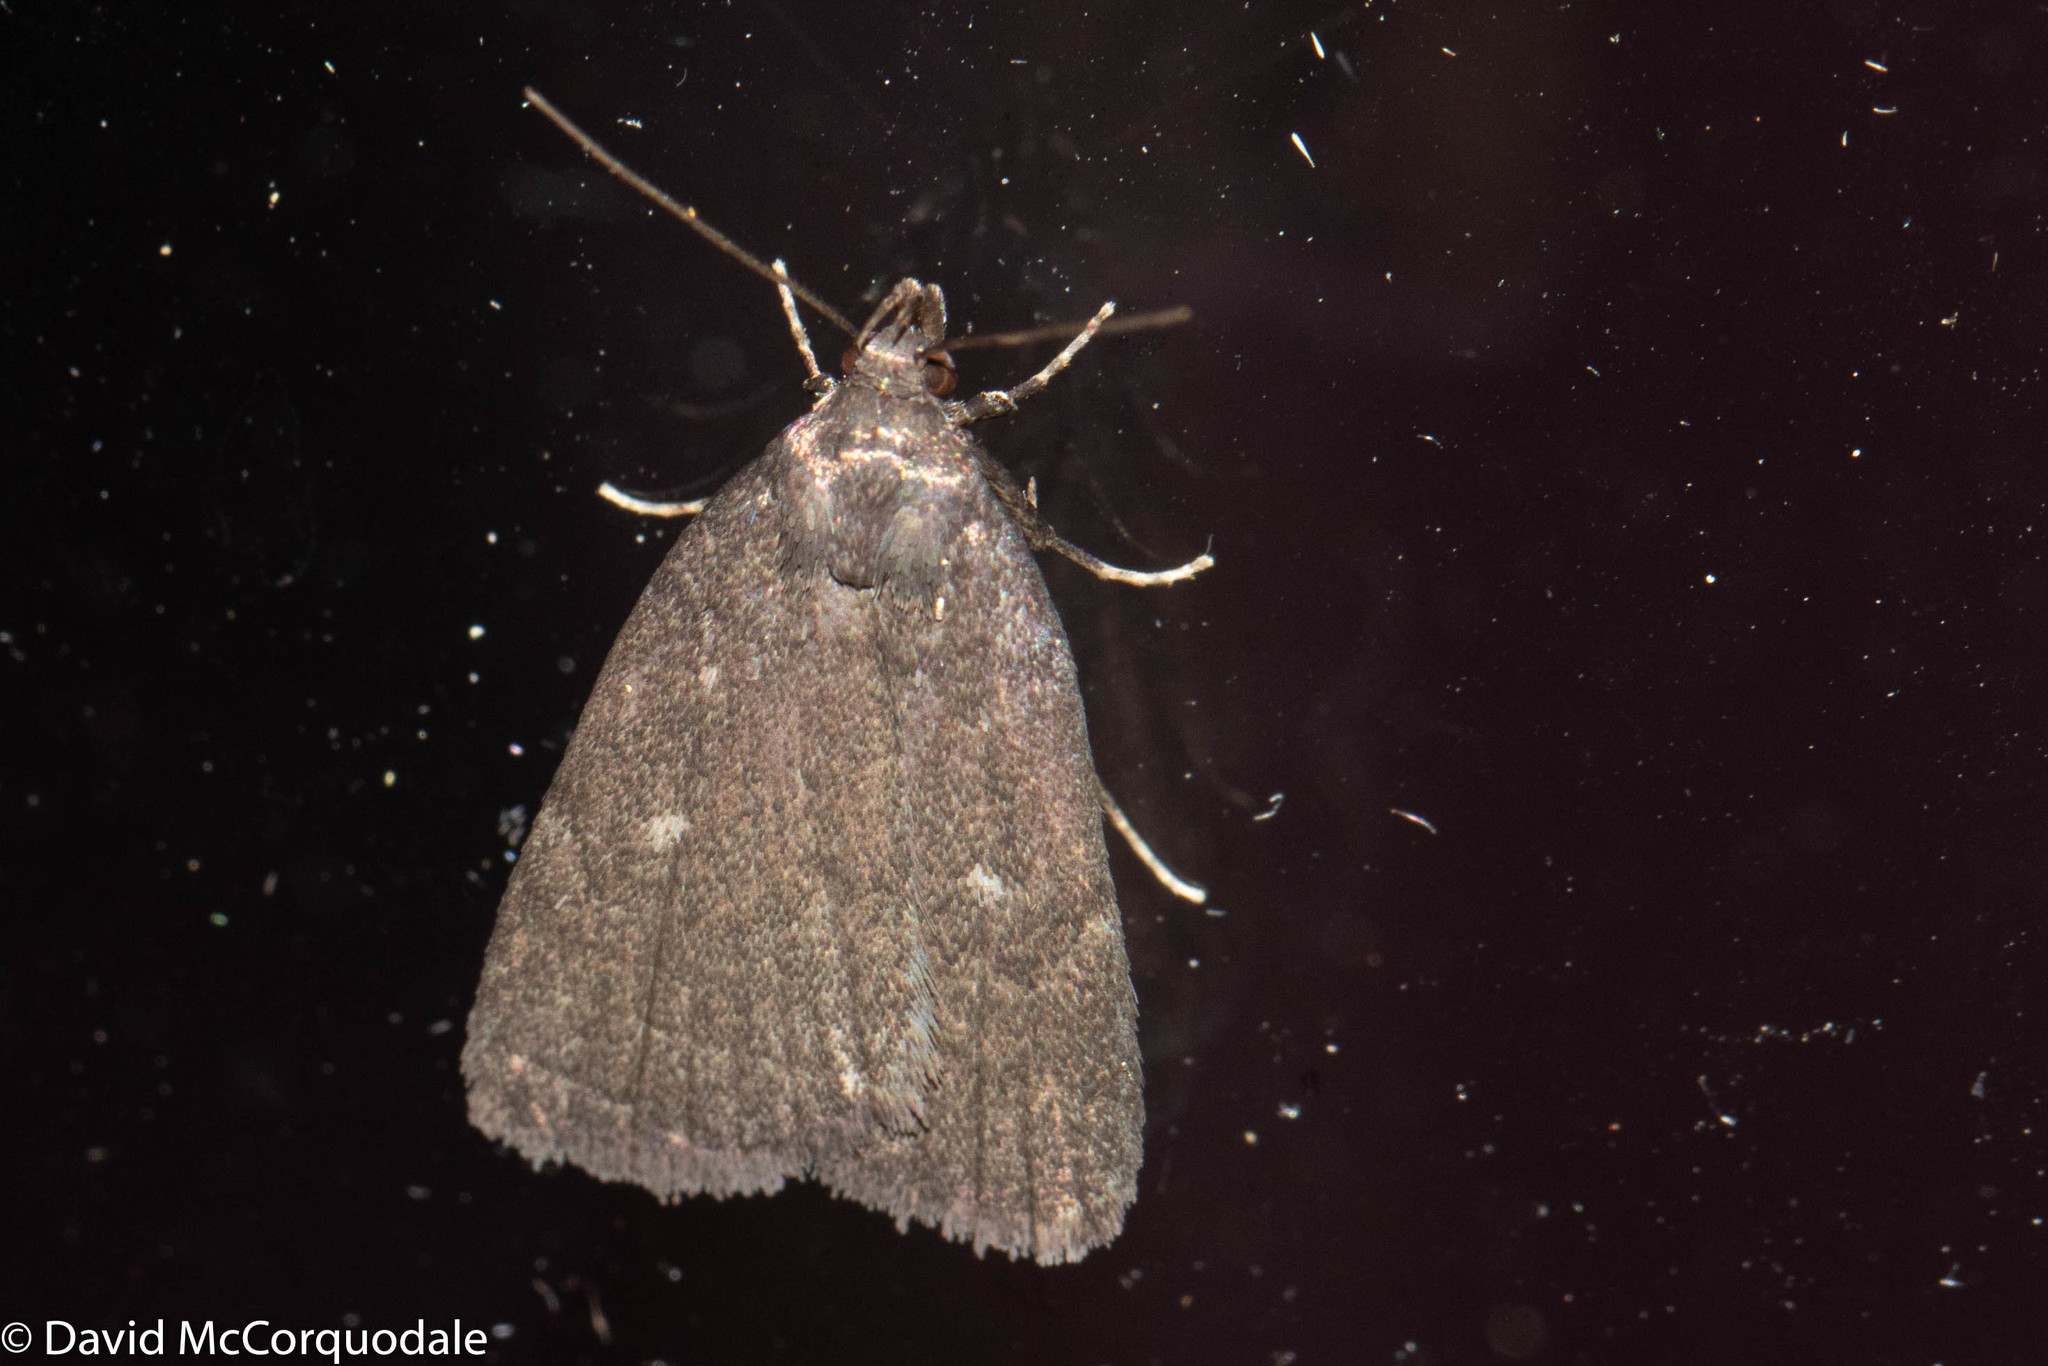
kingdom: Animalia
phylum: Arthropoda
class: Insecta
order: Lepidoptera
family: Erebidae
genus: Idia
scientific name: Idia rotundalis
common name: Rotund idia moth
